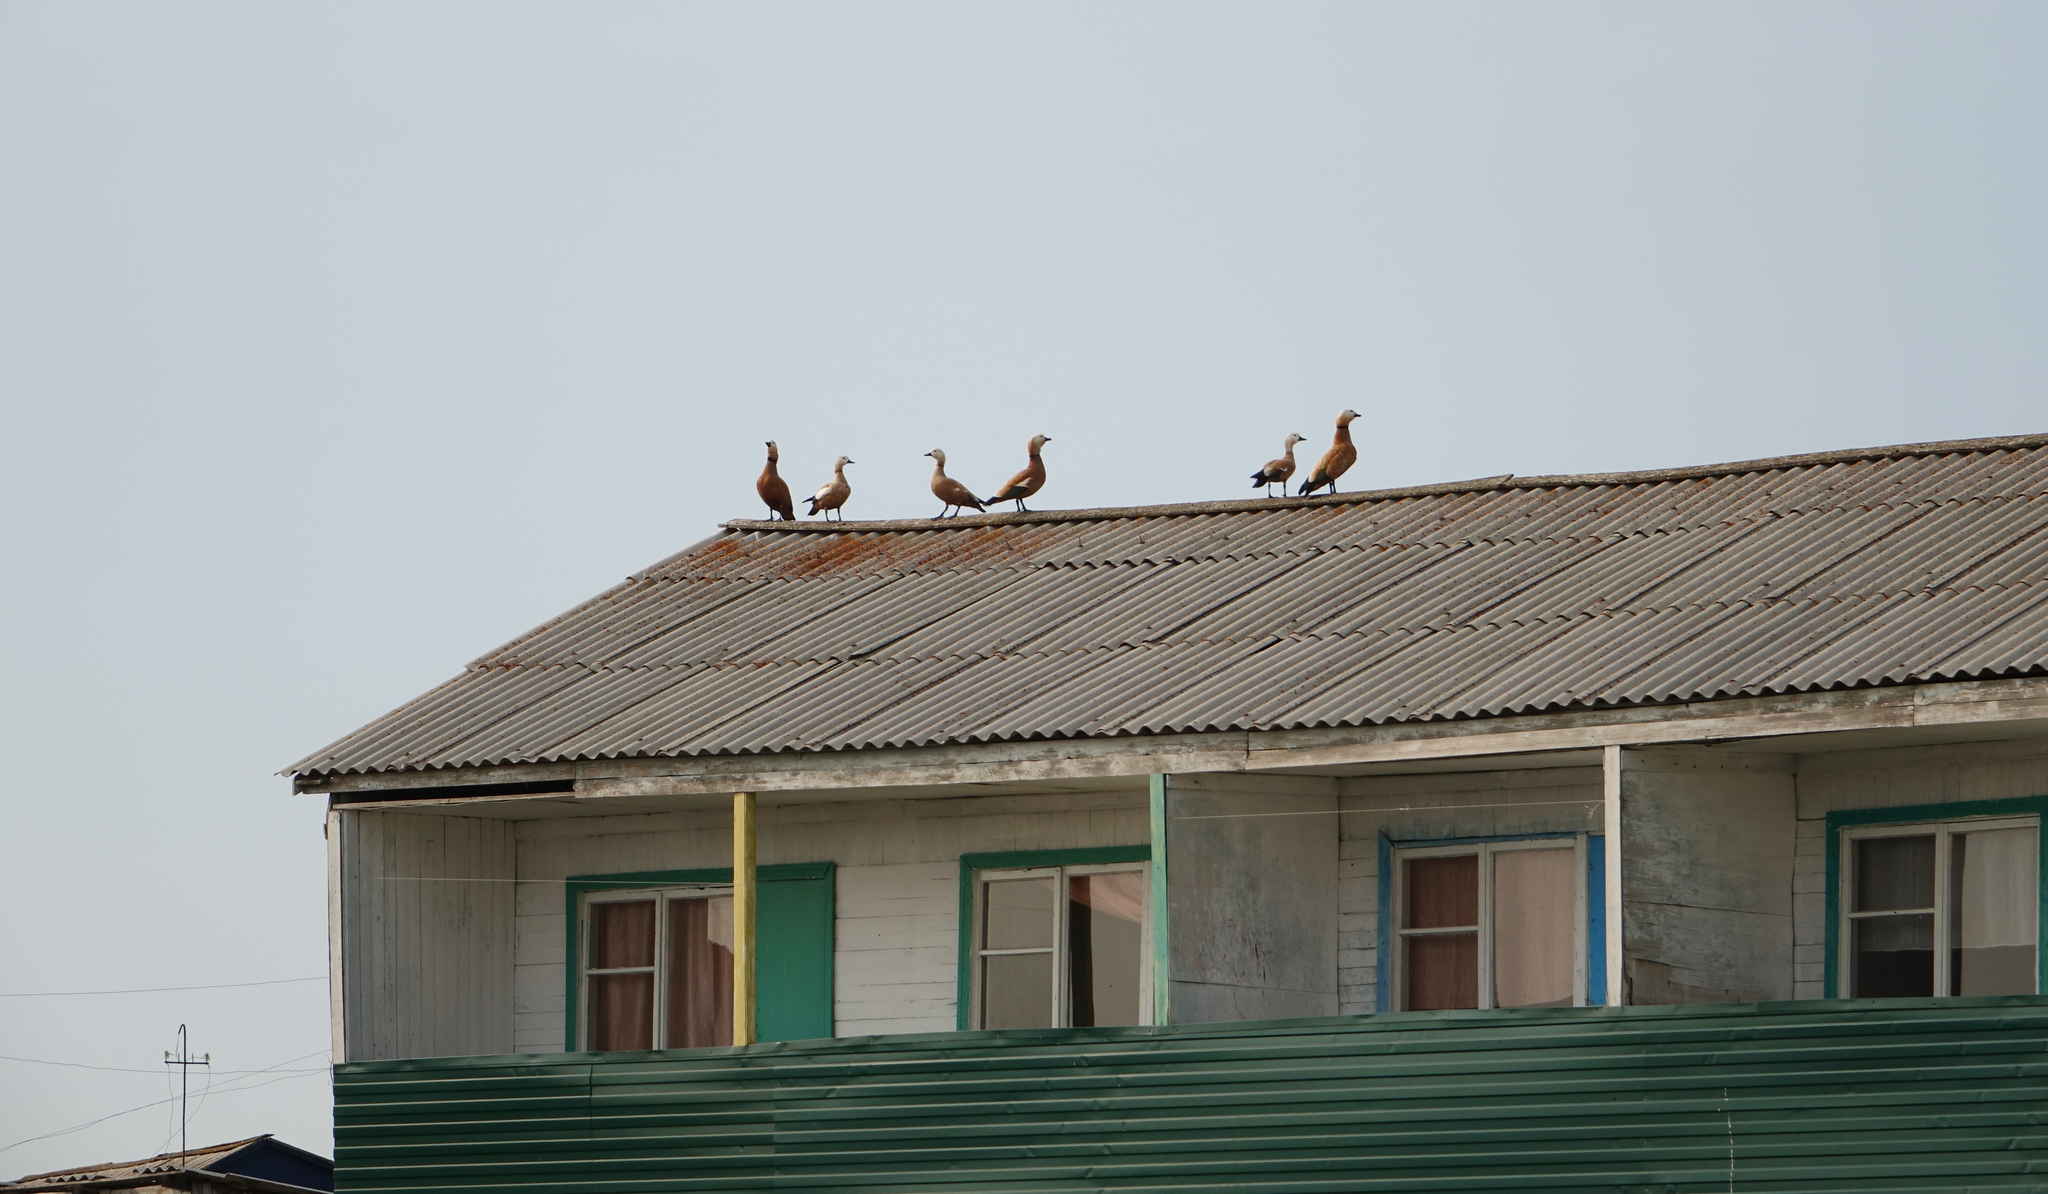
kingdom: Animalia
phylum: Chordata
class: Aves
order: Anseriformes
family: Anatidae
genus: Tadorna
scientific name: Tadorna ferruginea
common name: Ruddy shelduck
